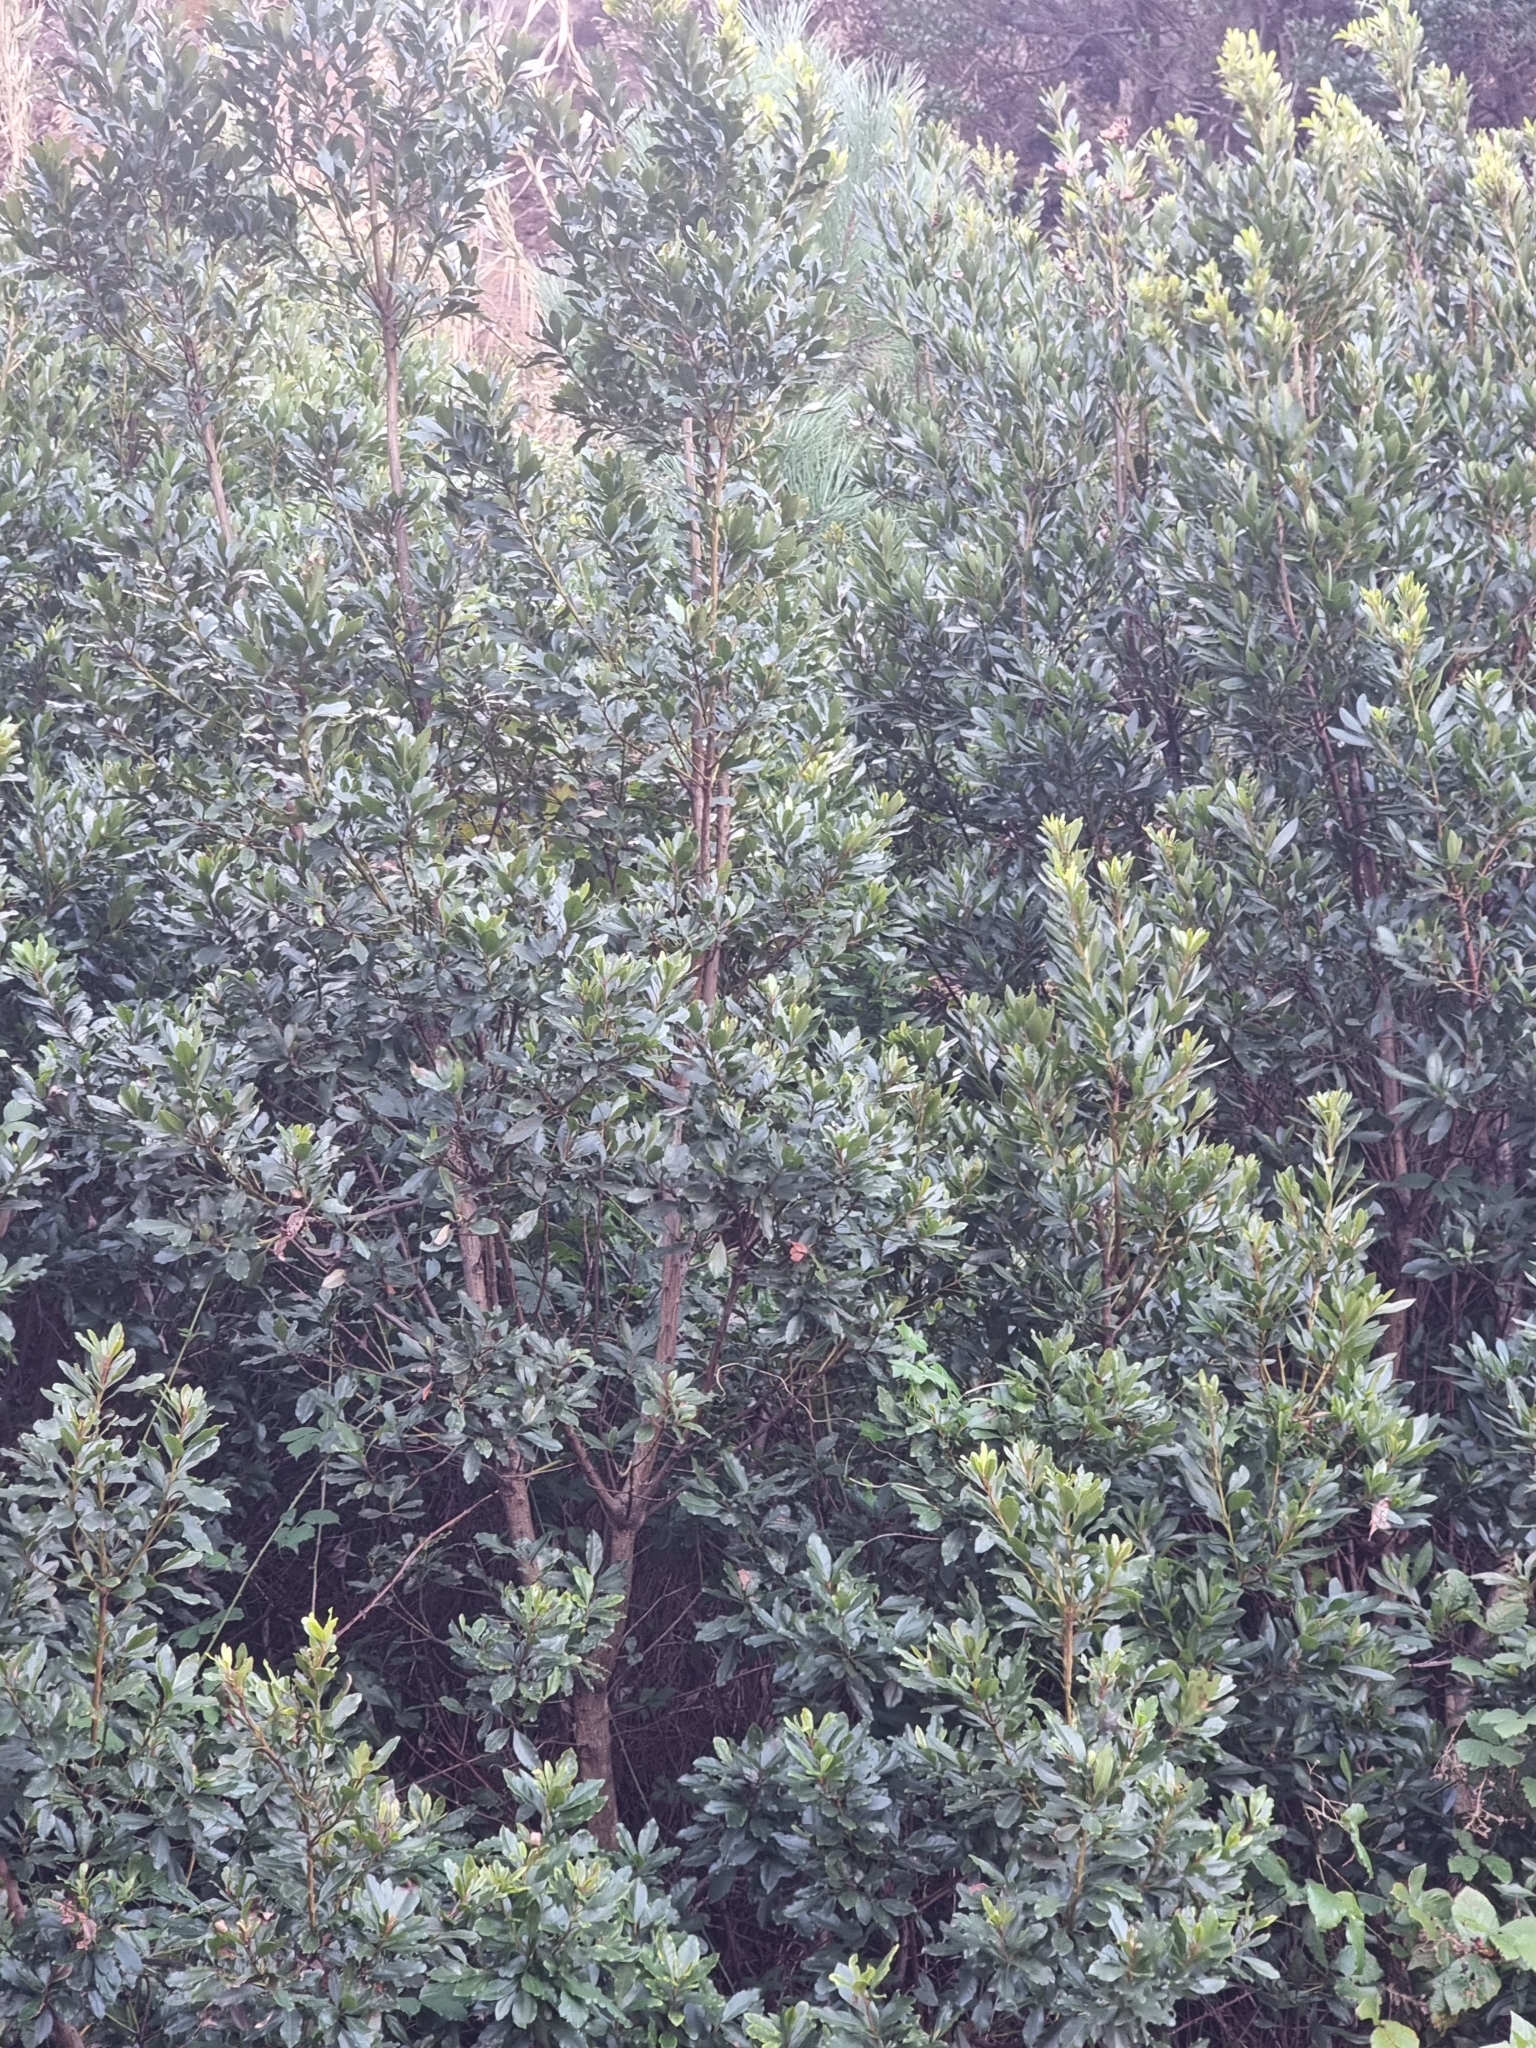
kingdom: Plantae
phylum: Tracheophyta
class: Magnoliopsida
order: Fagales
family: Myricaceae
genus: Morella
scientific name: Morella faya
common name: Firetree
